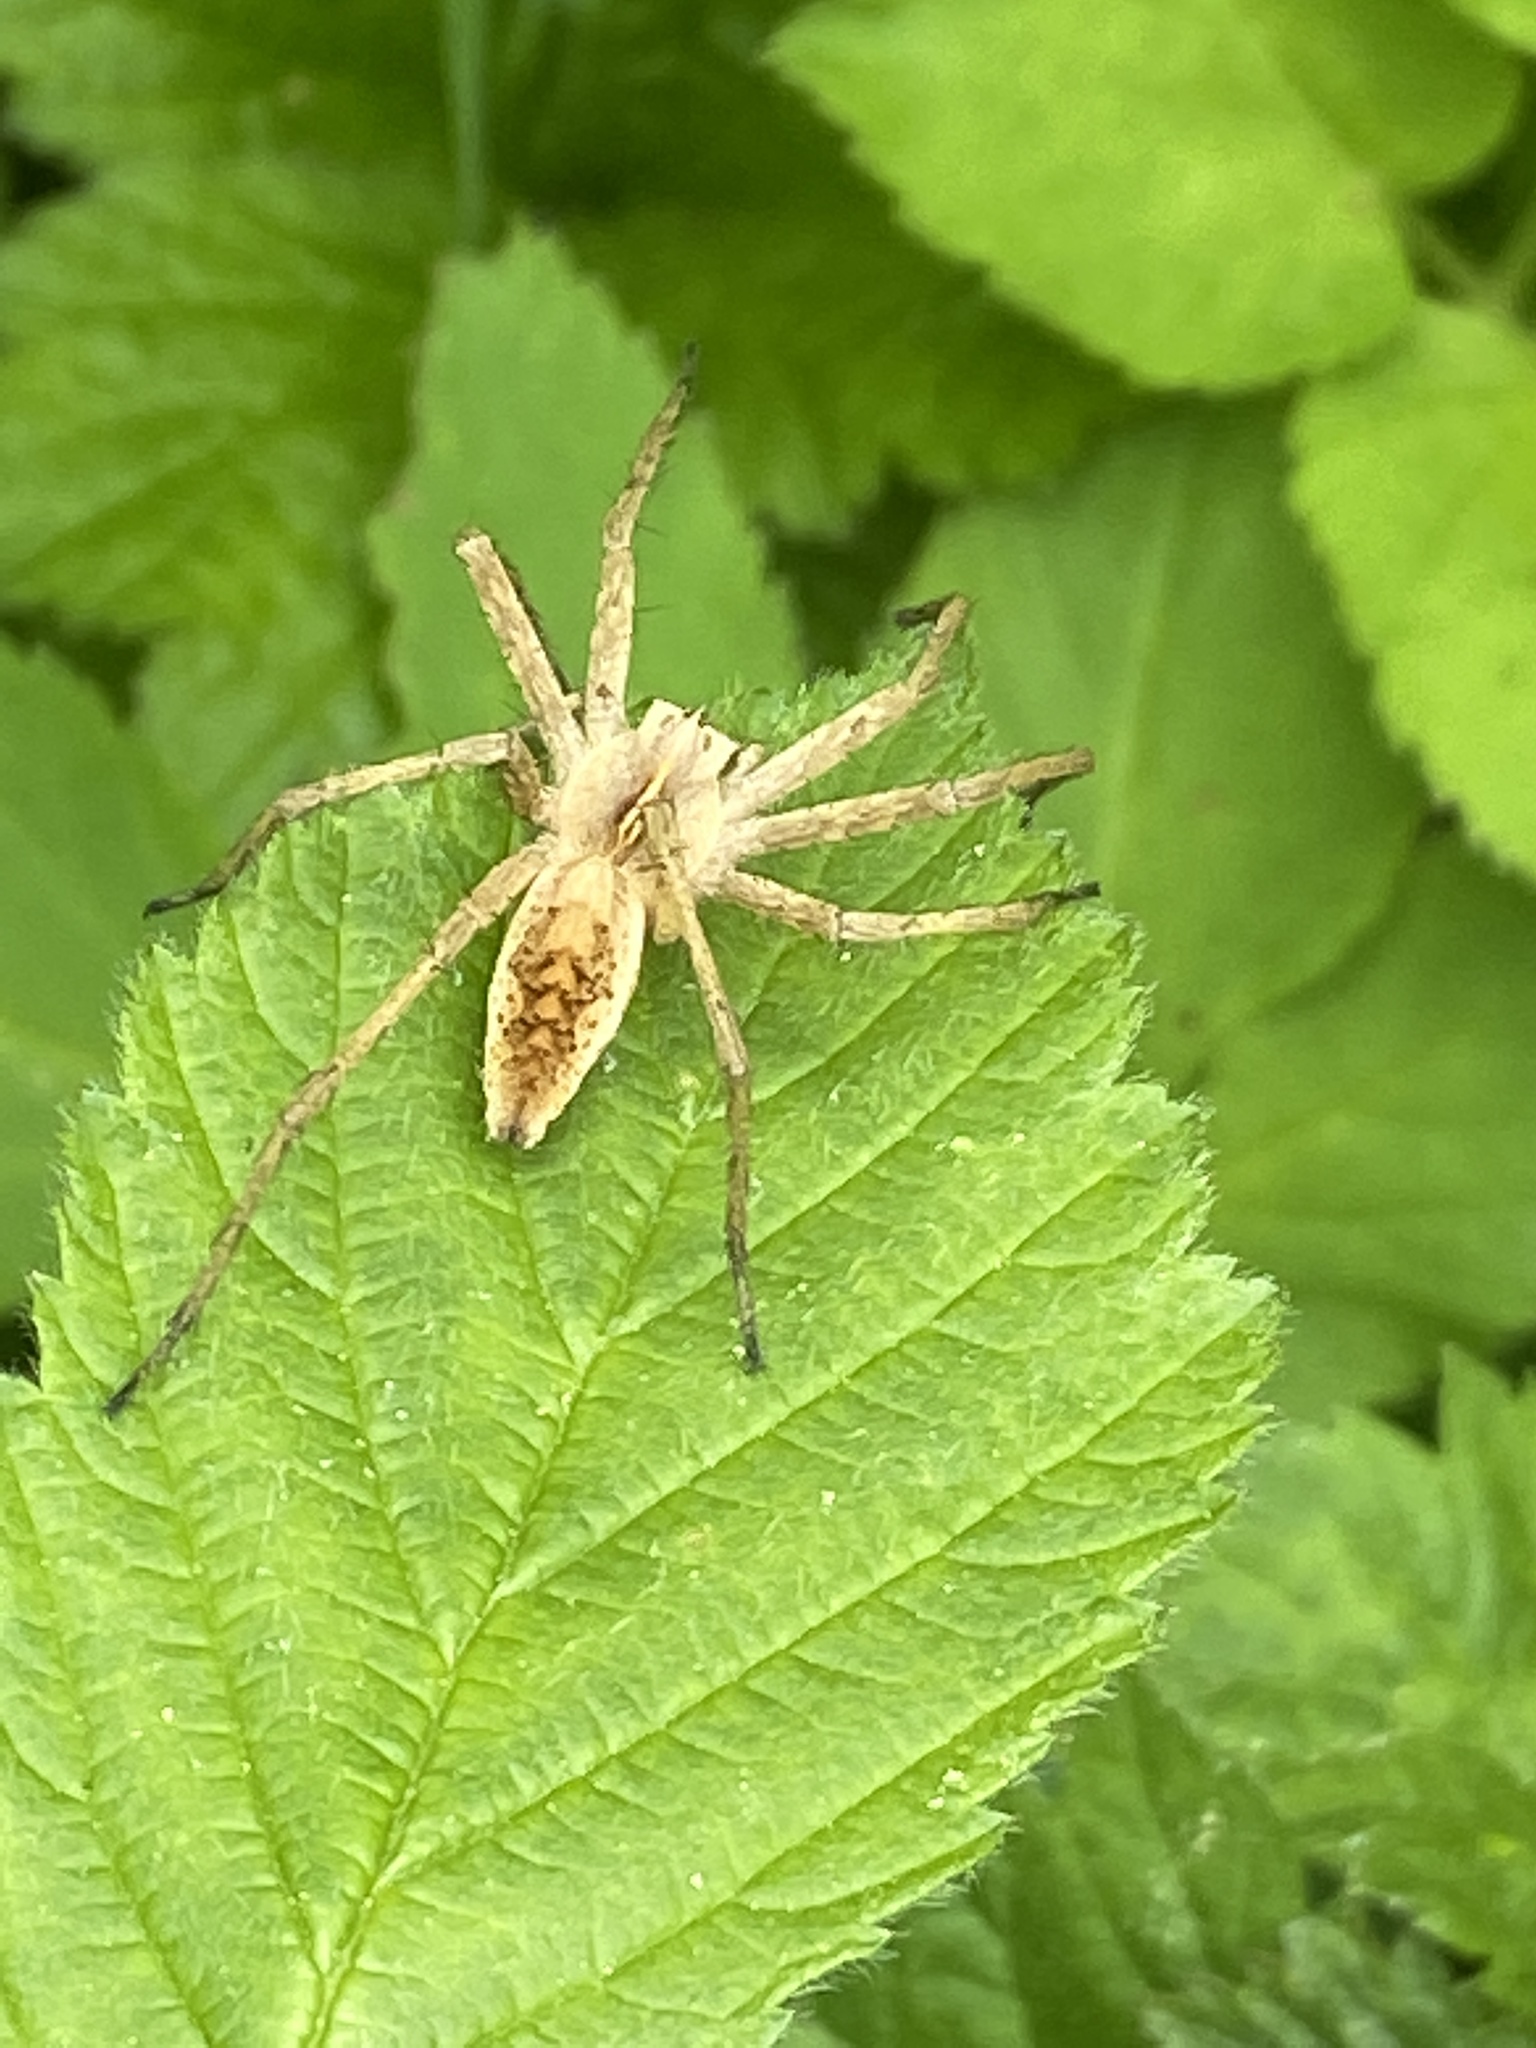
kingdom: Animalia
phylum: Arthropoda
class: Arachnida
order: Araneae
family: Pisauridae
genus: Pisaura
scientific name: Pisaura mirabilis
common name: Tent spider
